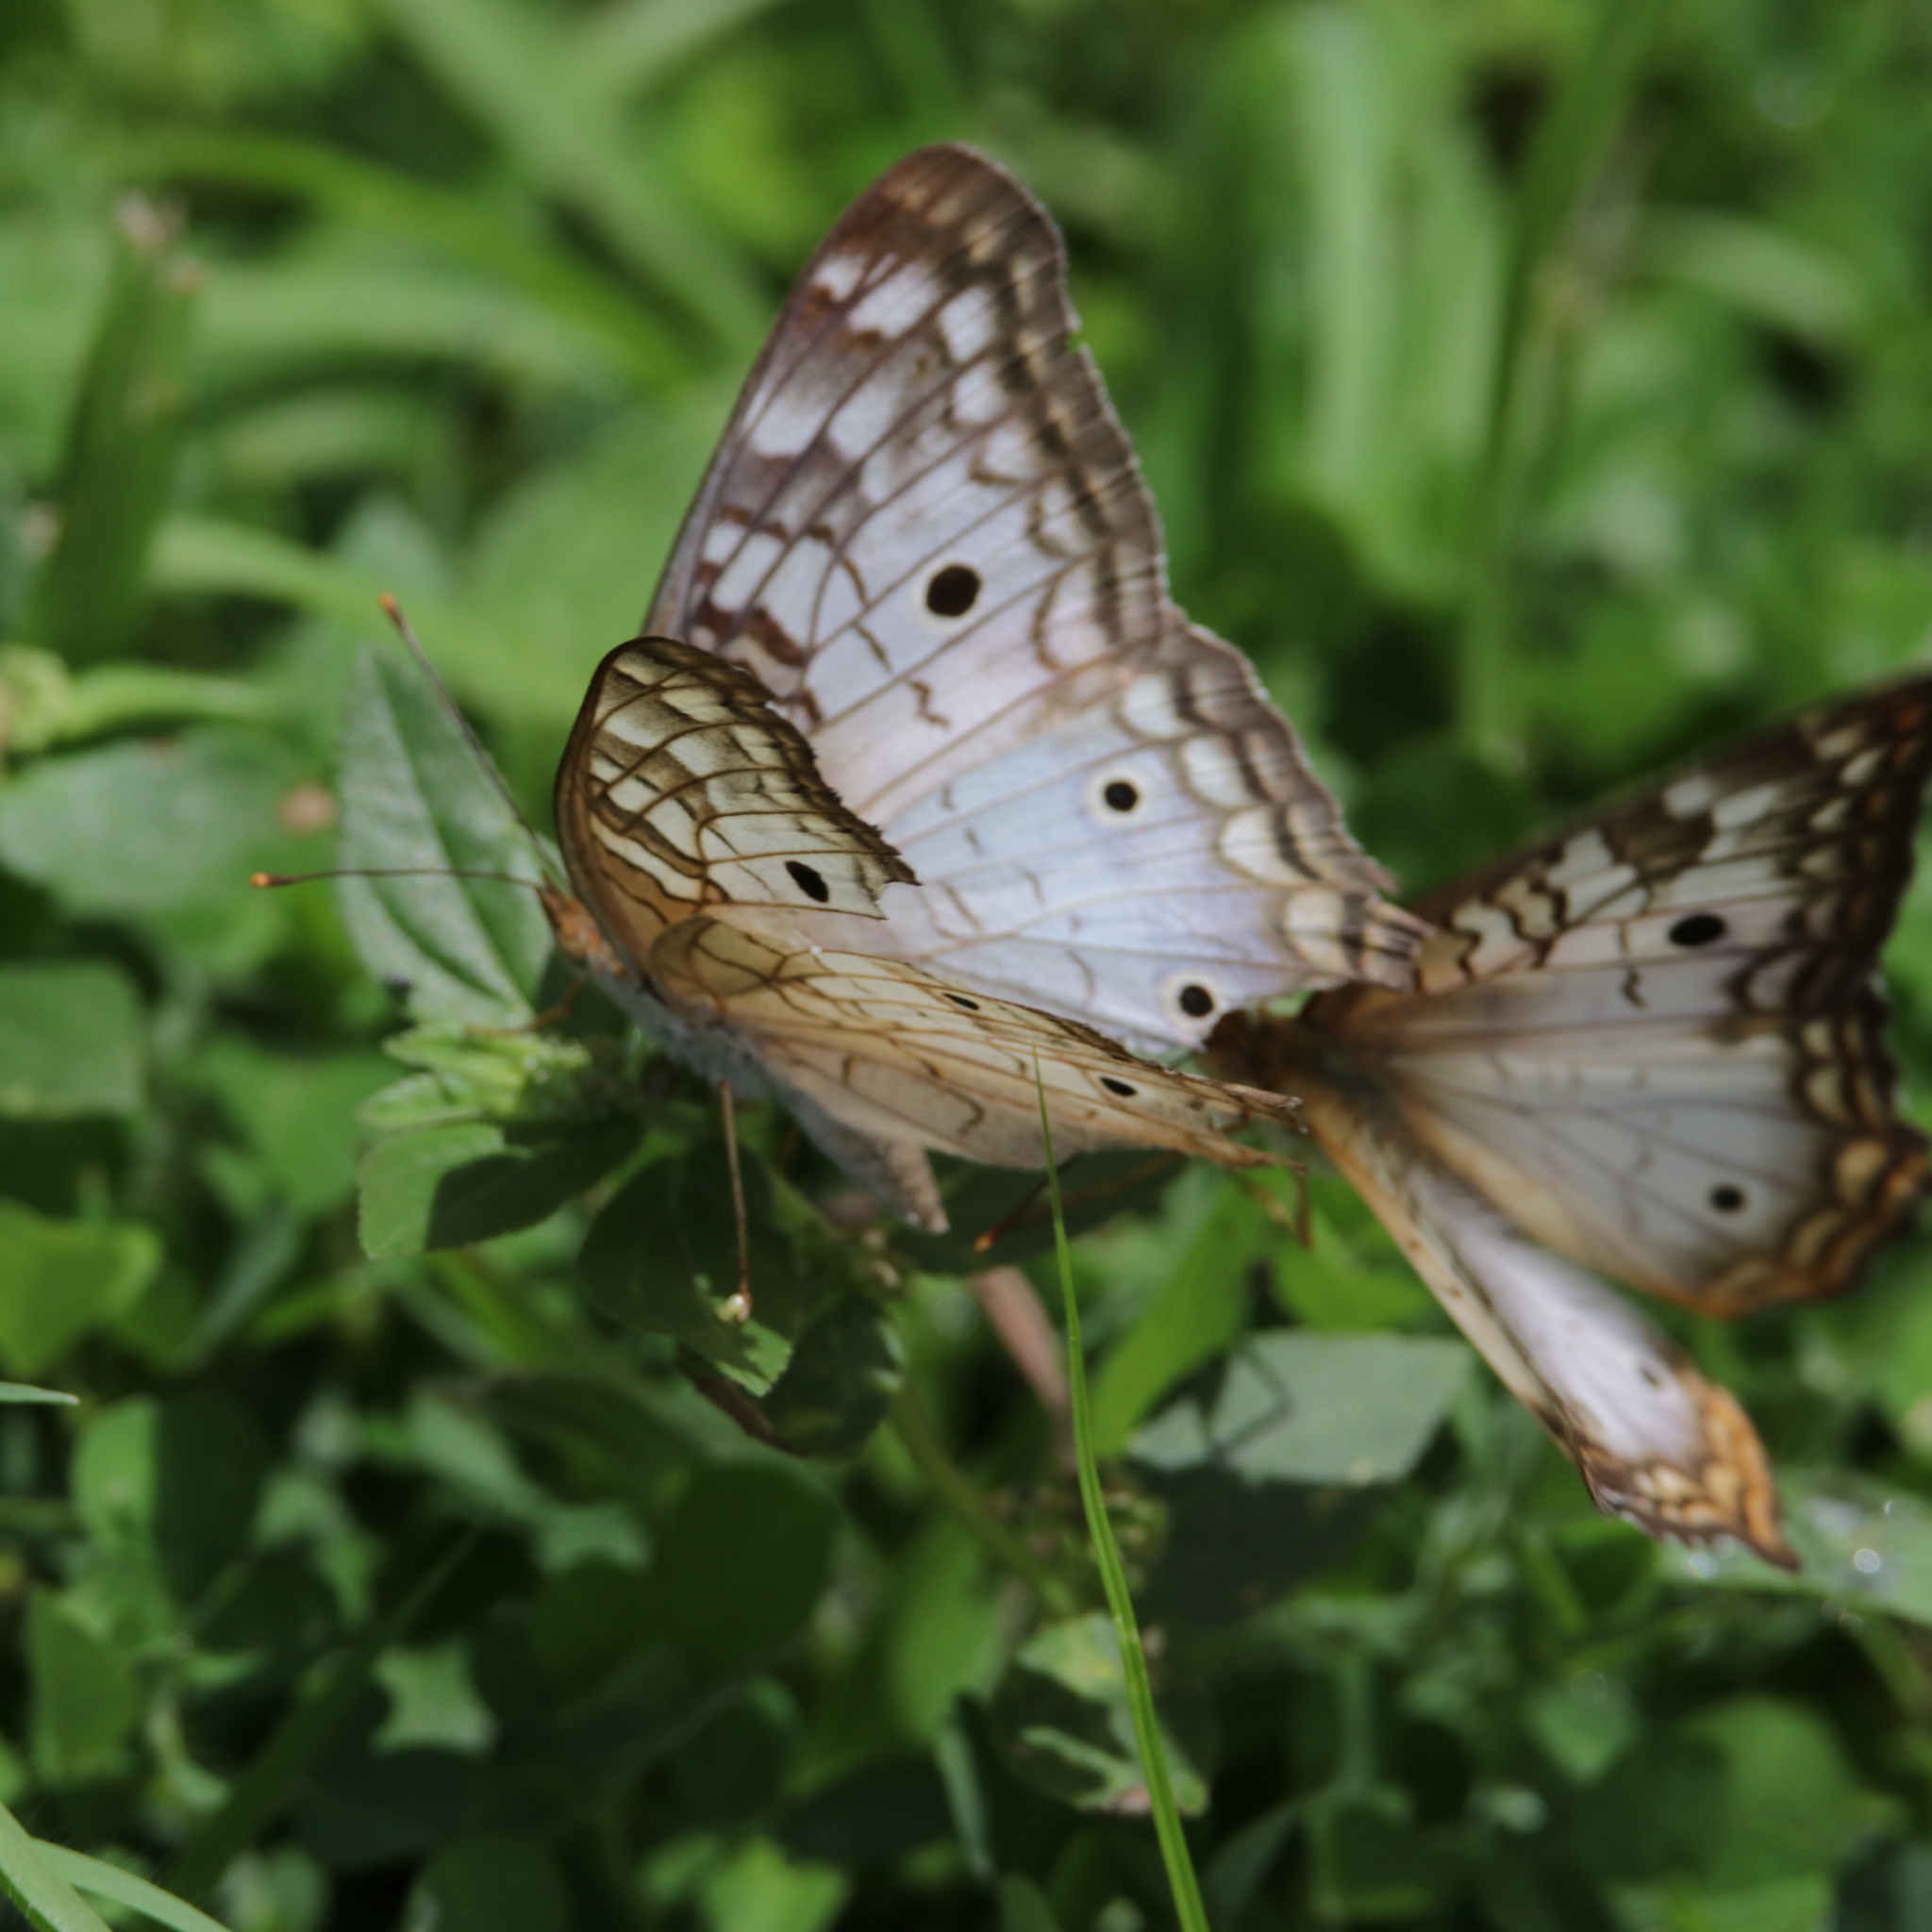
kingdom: Animalia
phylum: Arthropoda
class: Insecta
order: Lepidoptera
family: Nymphalidae
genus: Anartia
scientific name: Anartia jatrophae
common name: White peacock
